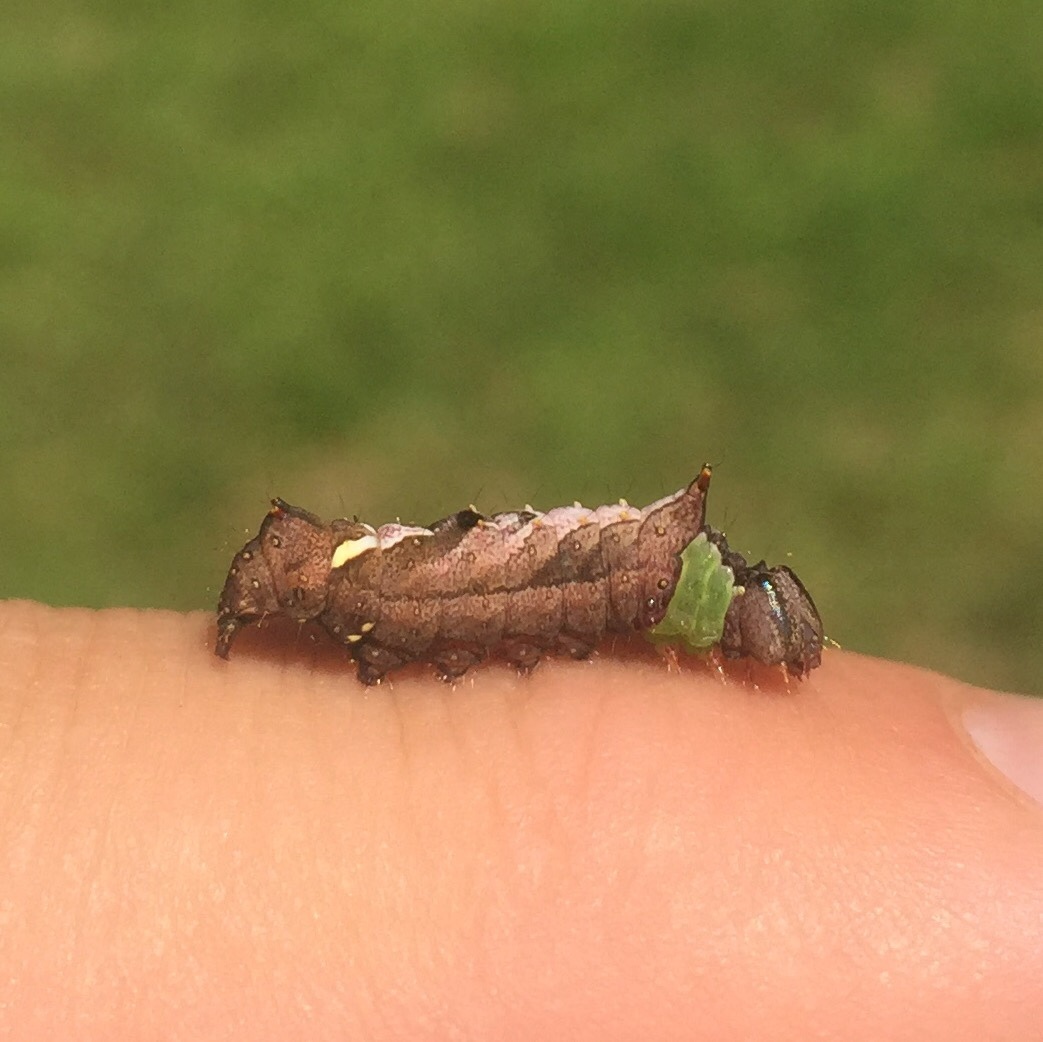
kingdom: Animalia
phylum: Arthropoda
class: Insecta
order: Lepidoptera
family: Notodontidae
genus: Schizura
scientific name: Schizura
